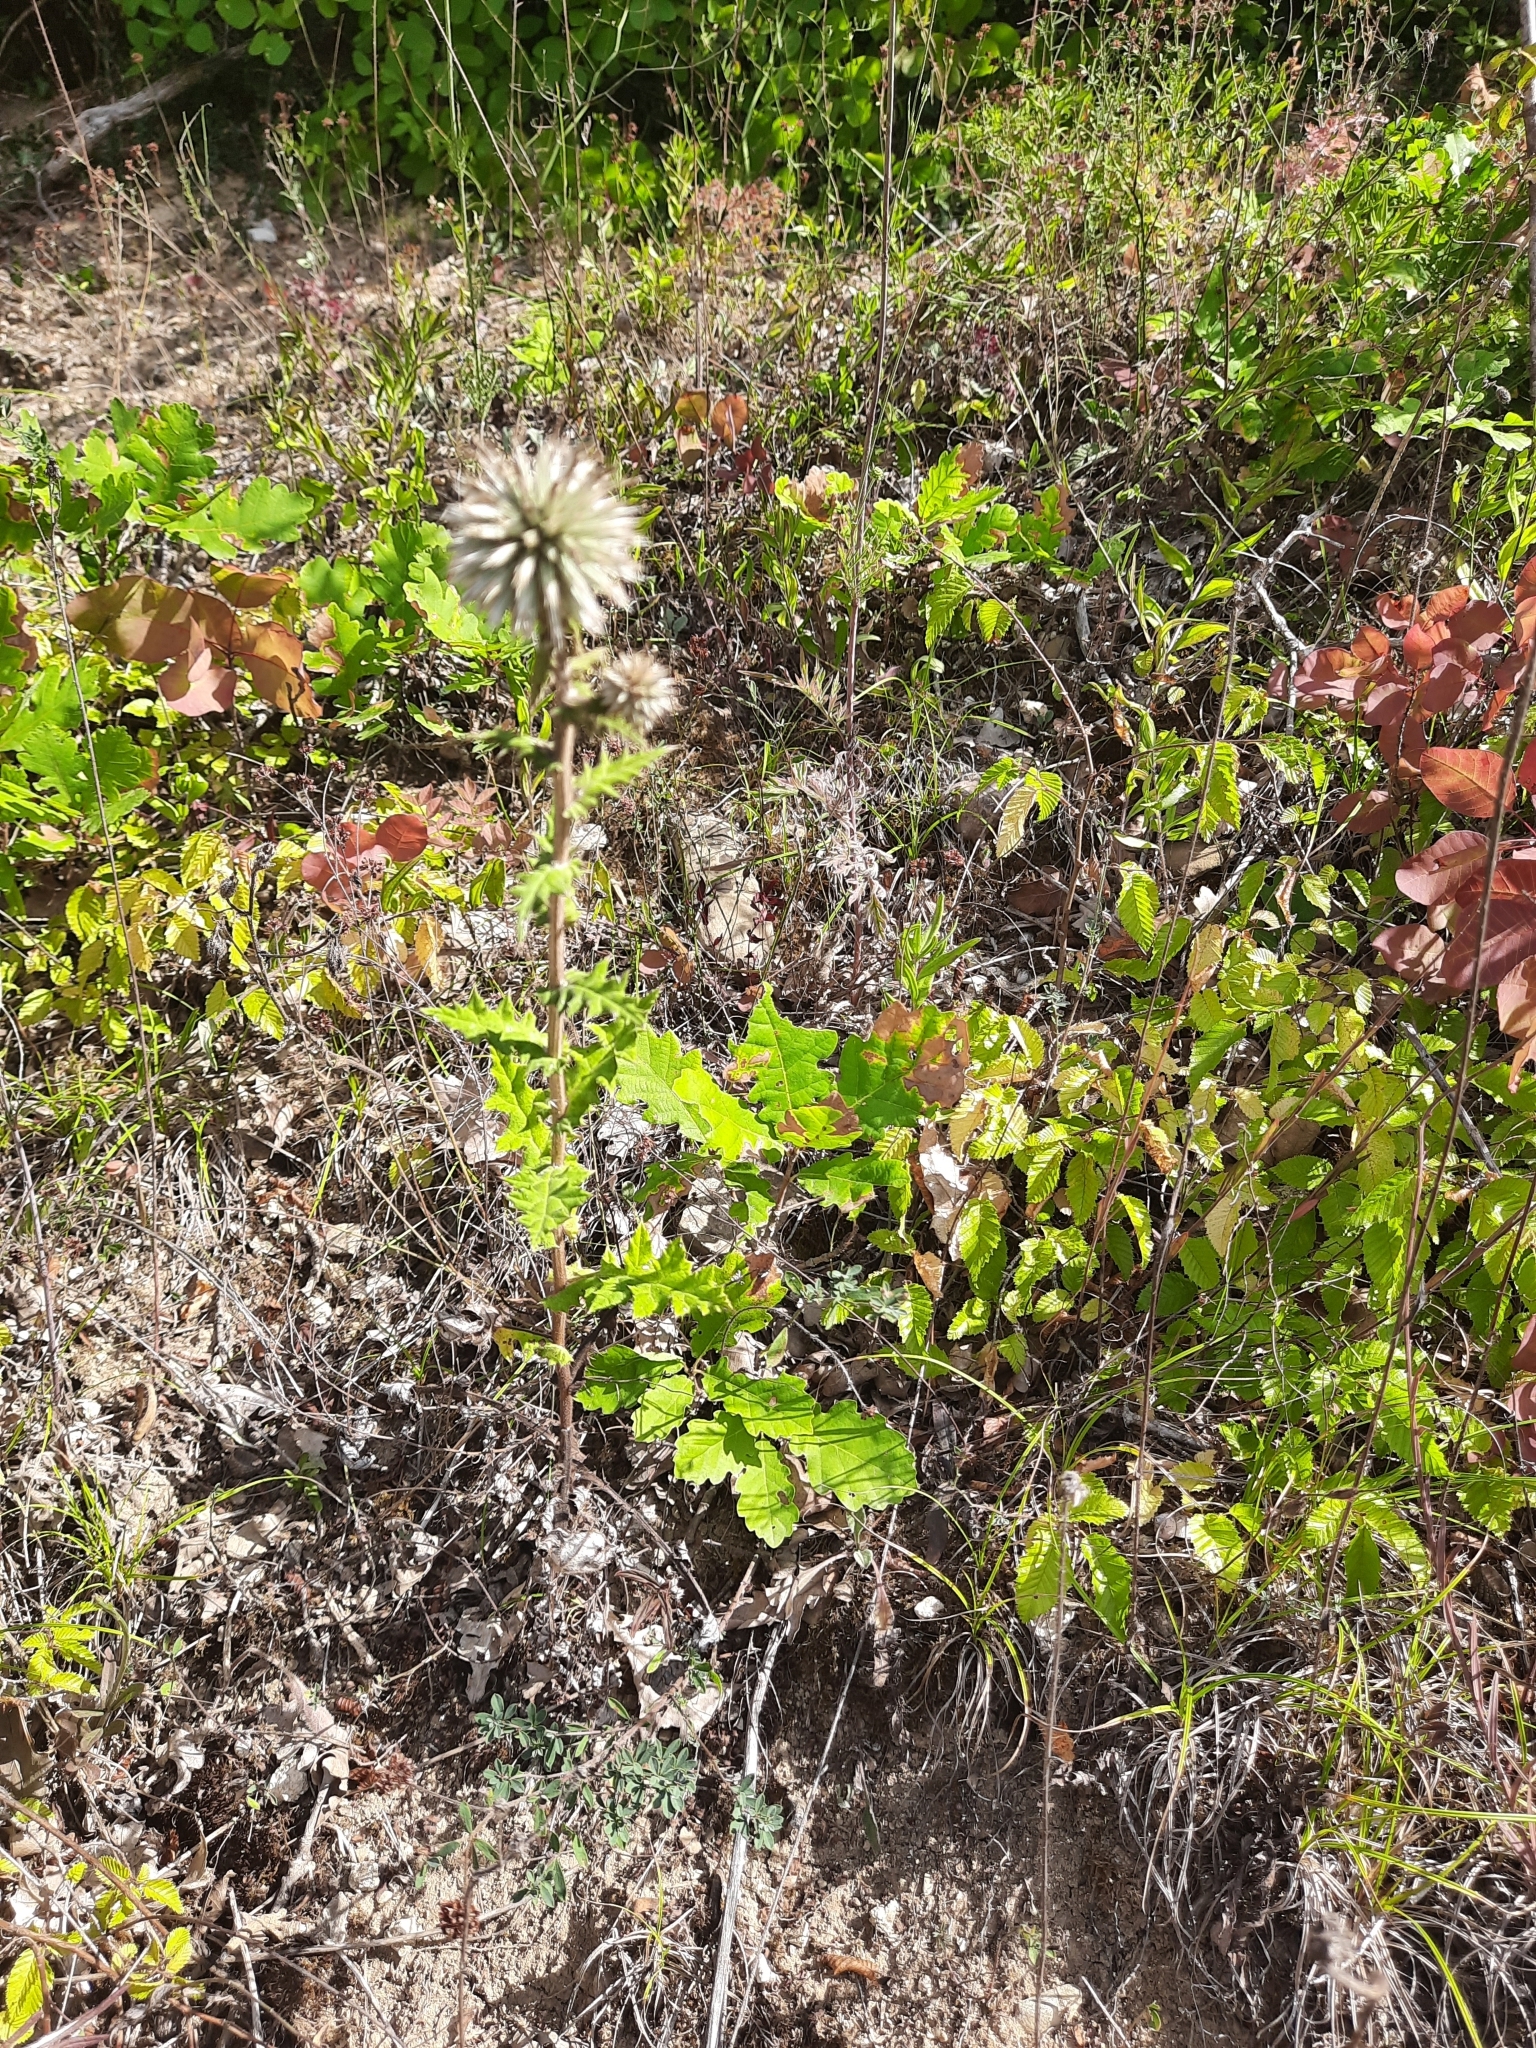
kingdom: Plantae
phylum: Tracheophyta
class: Magnoliopsida
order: Asterales
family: Asteraceae
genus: Echinops
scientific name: Echinops sphaerocephalus
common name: Glandular globe-thistle
